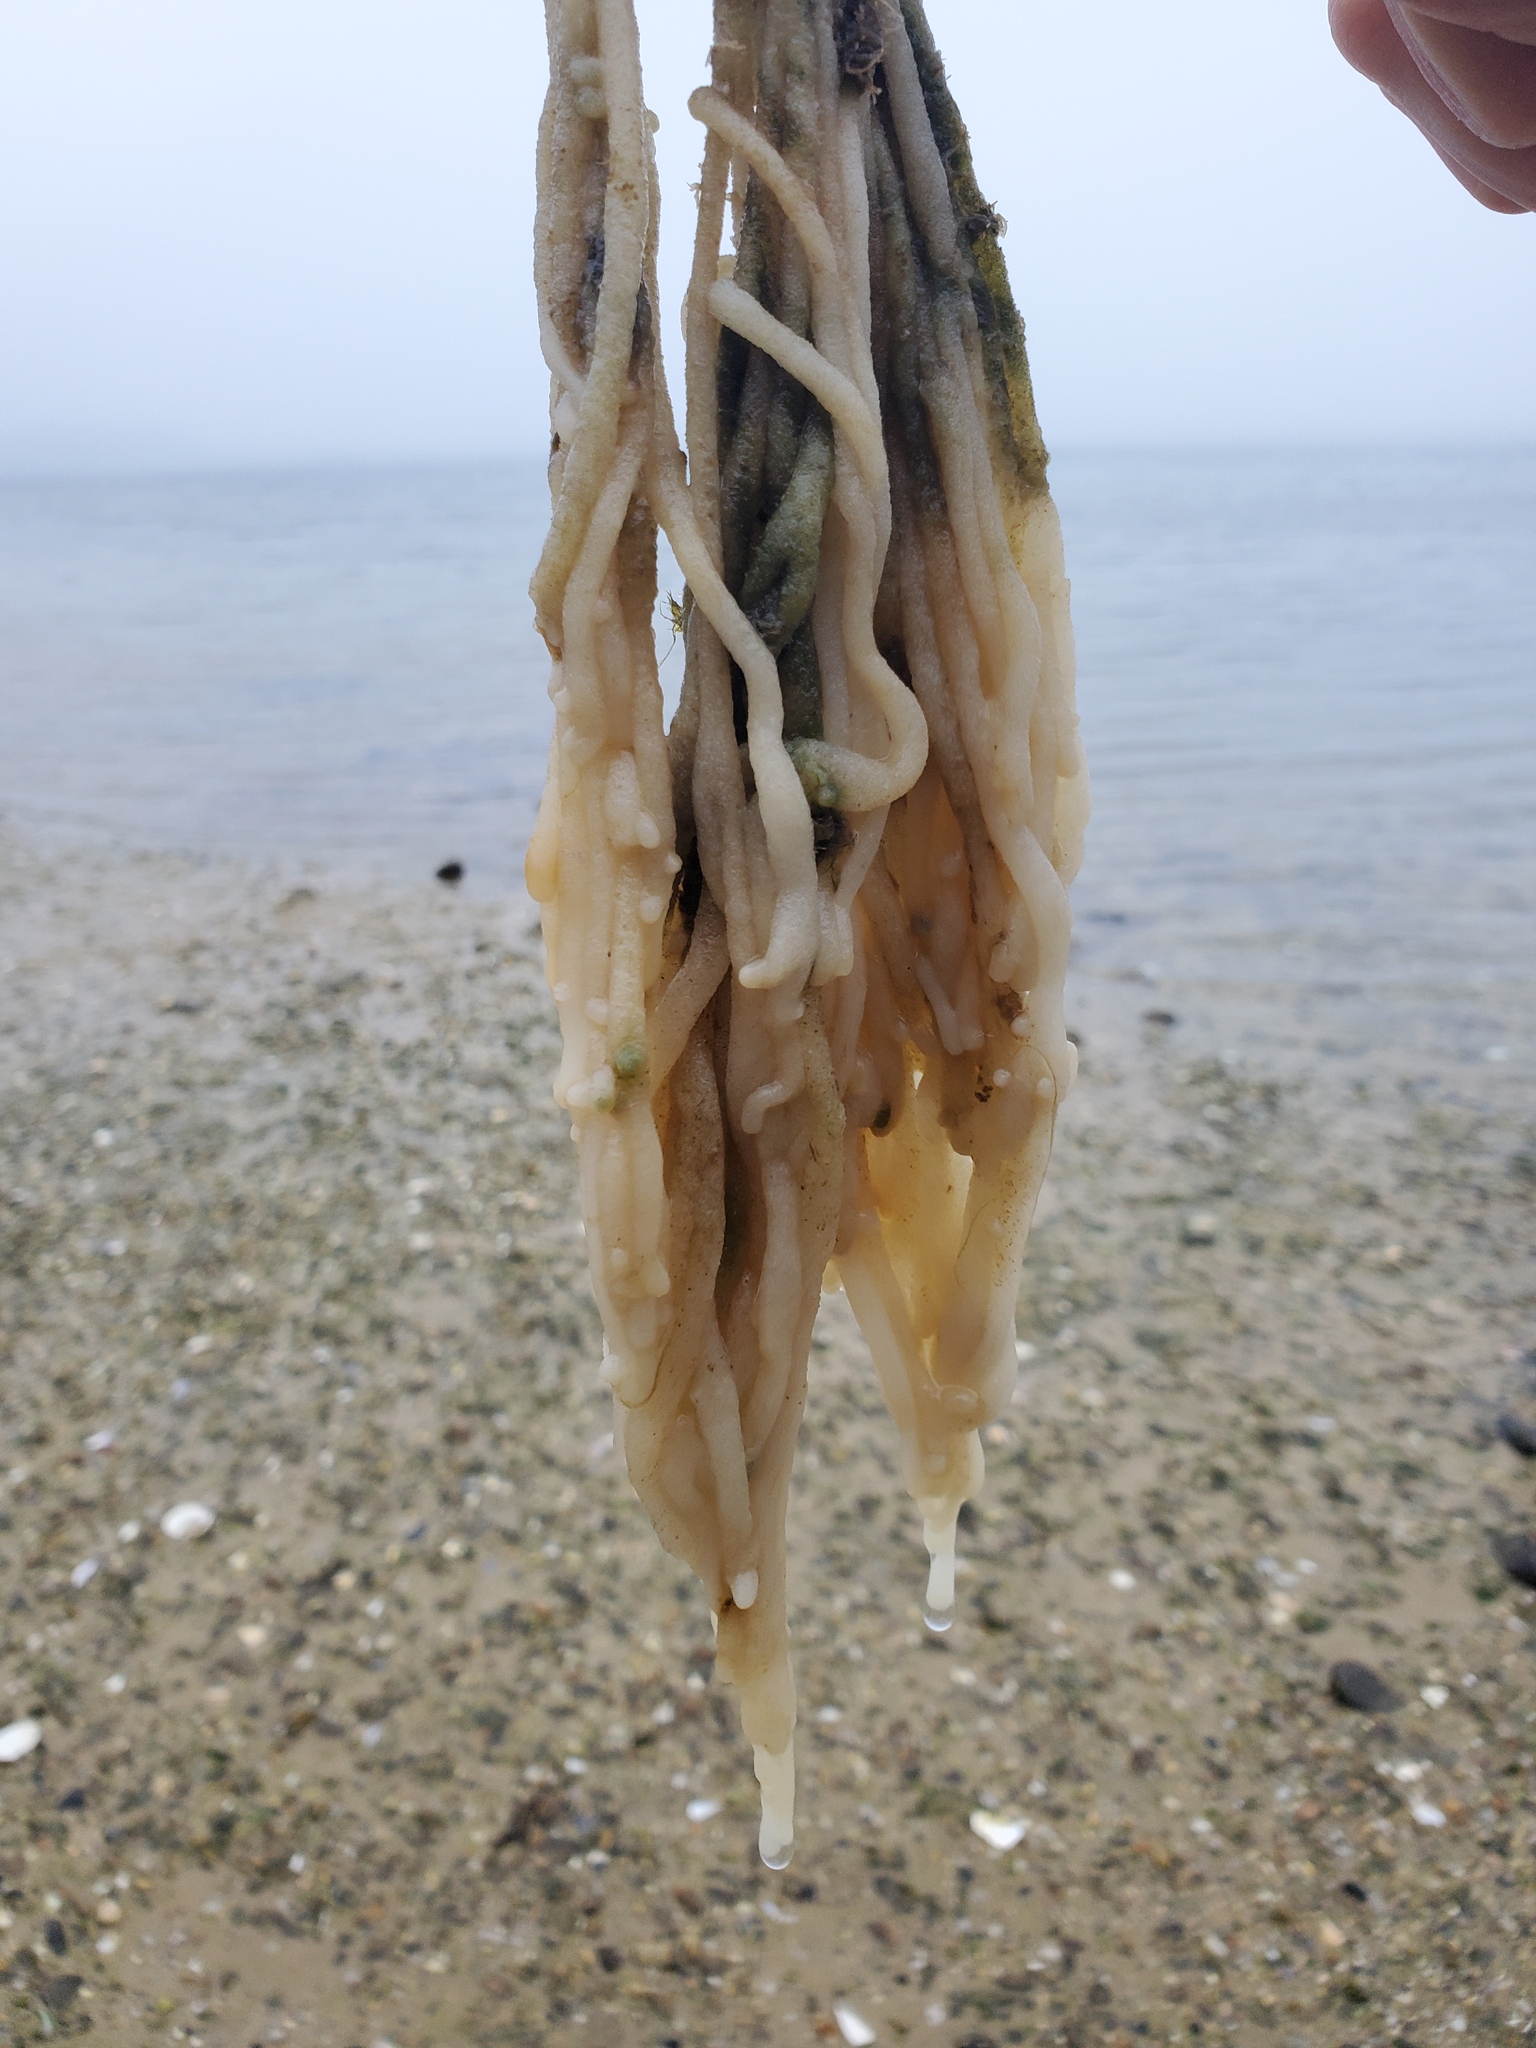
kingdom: Plantae
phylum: Chlorophyta
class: Ulvophyceae
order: Bryopsidales
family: Codiaceae
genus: Codium
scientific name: Codium fragile
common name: Dead man's fingers
